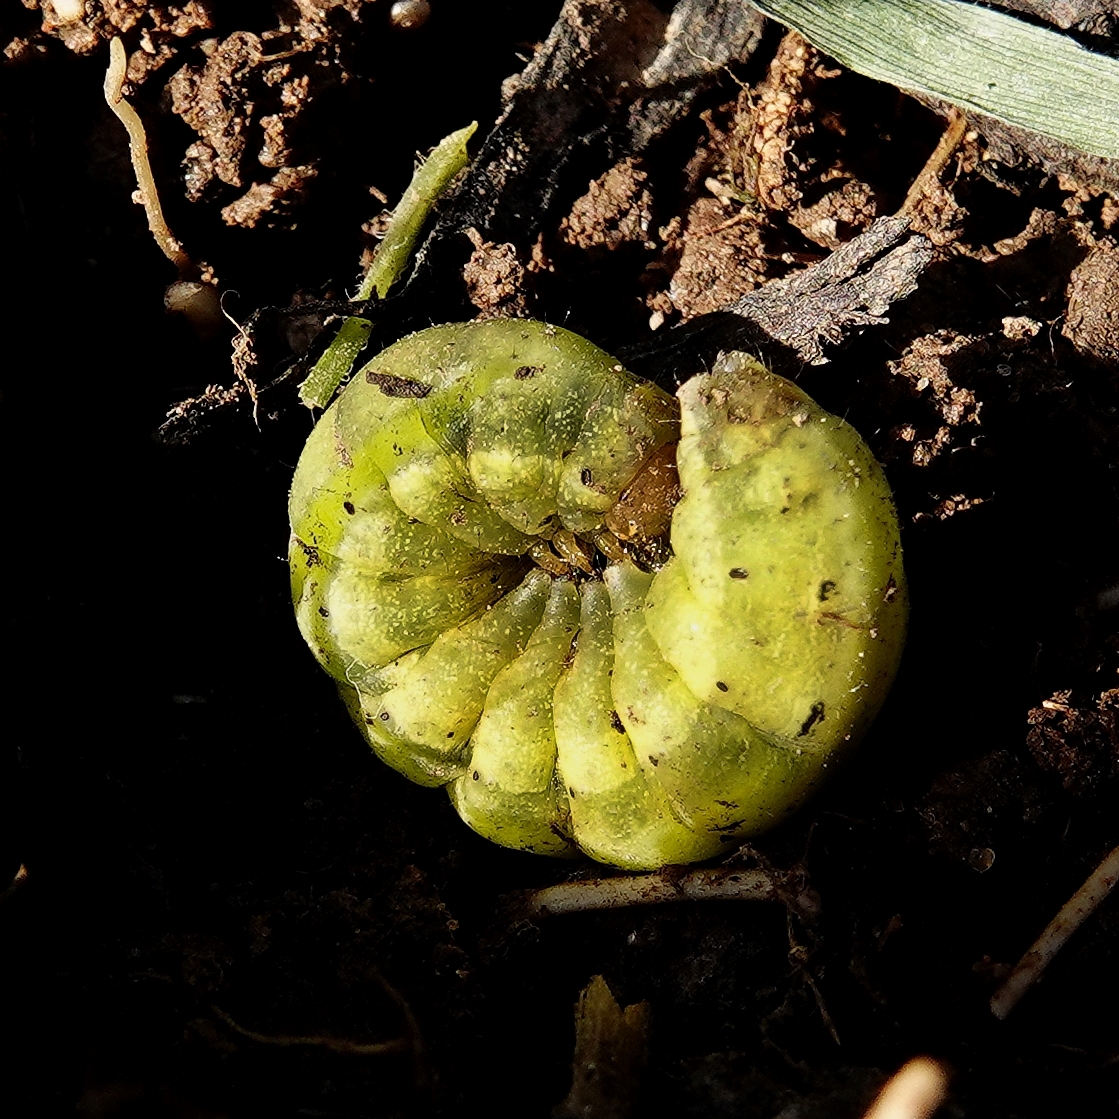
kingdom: Animalia
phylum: Arthropoda
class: Insecta
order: Lepidoptera
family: Noctuidae
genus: Noctua
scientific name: Noctua pronuba
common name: Large yellow underwing
